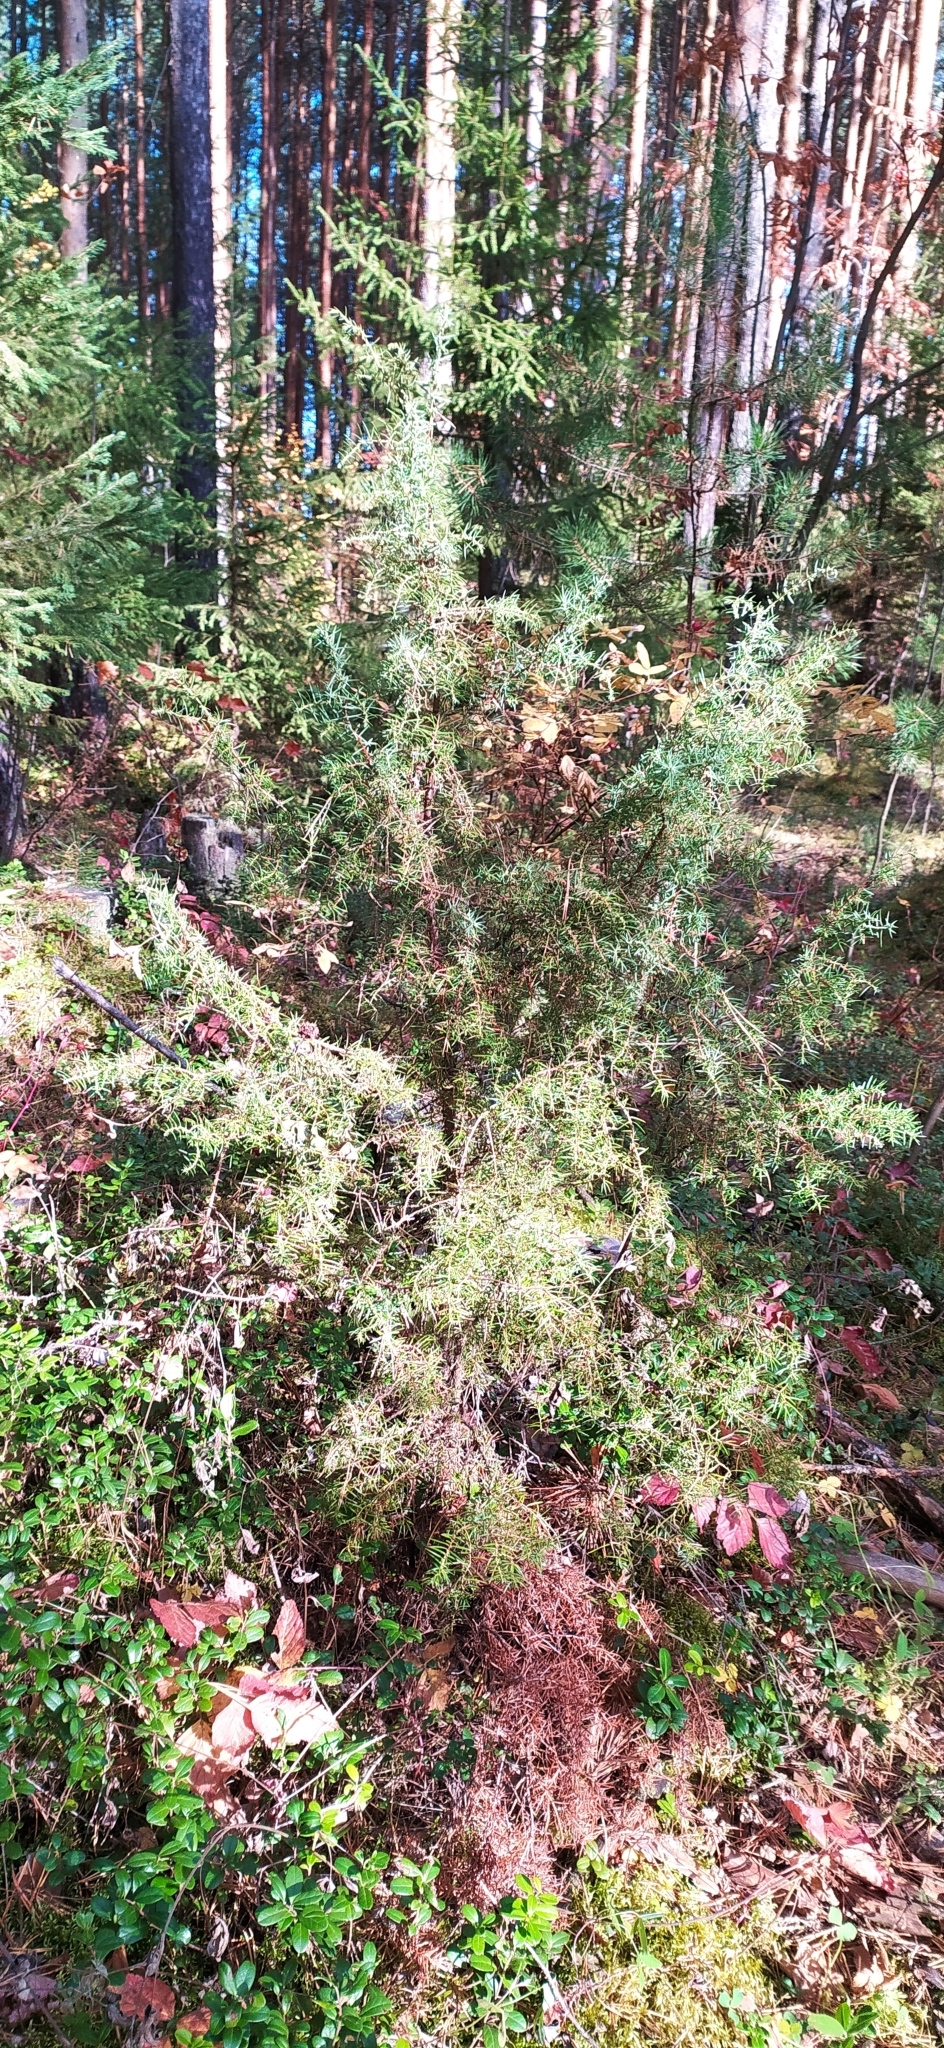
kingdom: Plantae
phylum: Tracheophyta
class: Pinopsida
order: Pinales
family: Cupressaceae
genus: Juniperus
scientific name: Juniperus communis
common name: Common juniper
